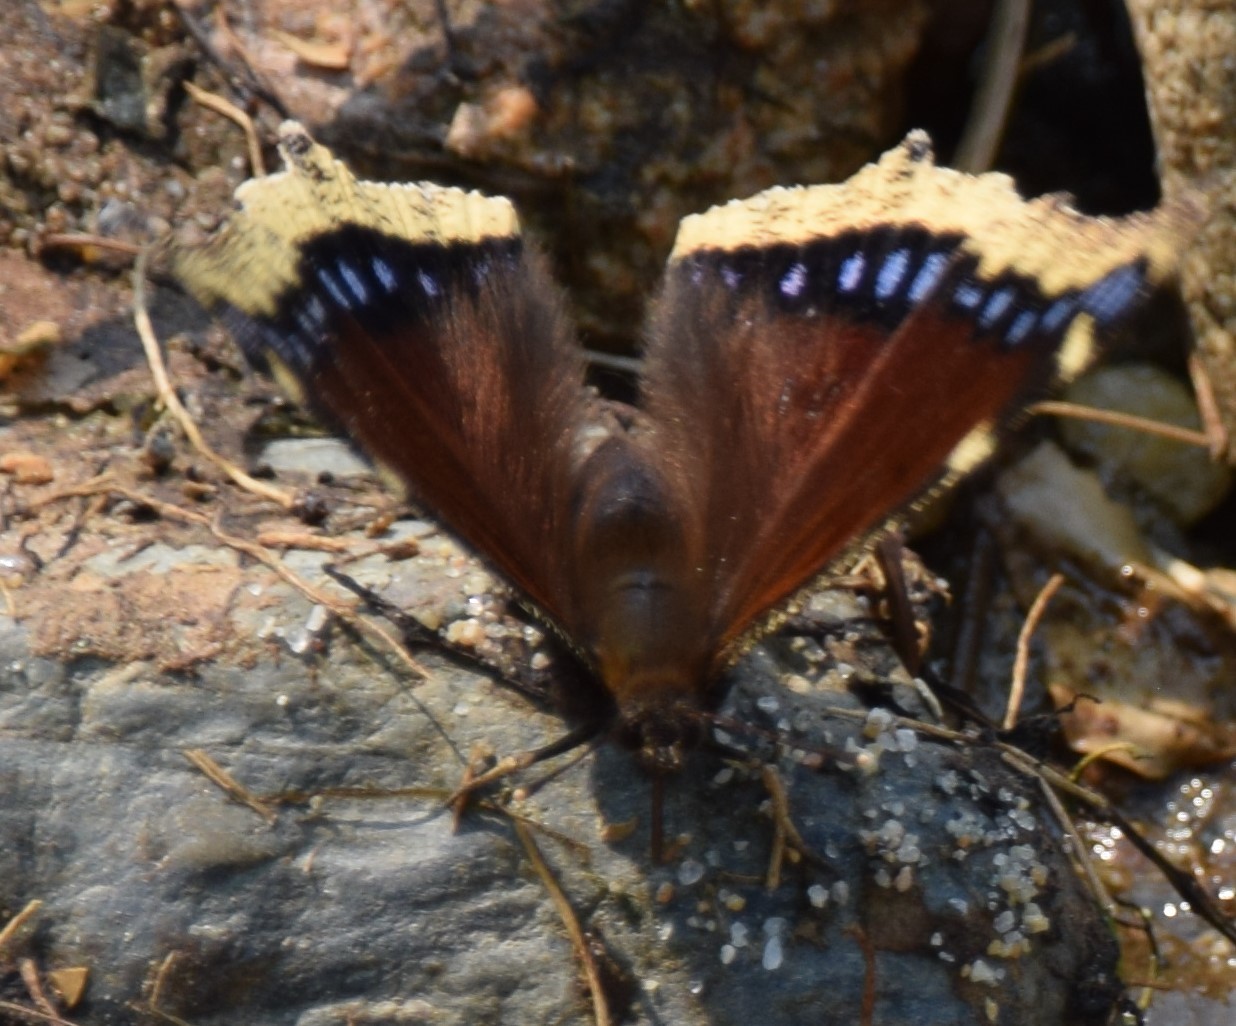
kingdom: Animalia
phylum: Arthropoda
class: Insecta
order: Lepidoptera
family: Nymphalidae
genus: Nymphalis
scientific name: Nymphalis antiopa
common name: Camberwell beauty
